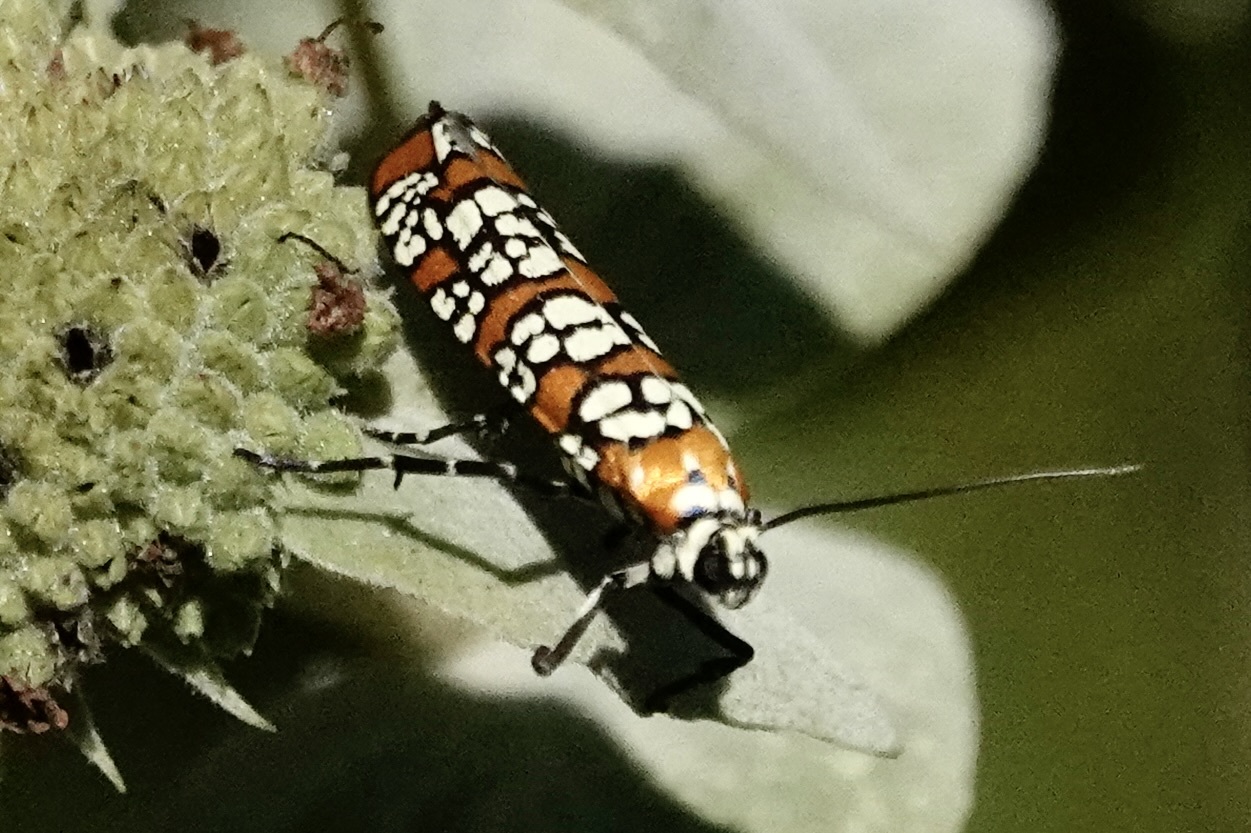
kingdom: Animalia
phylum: Arthropoda
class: Insecta
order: Lepidoptera
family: Attevidae
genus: Atteva
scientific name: Atteva punctella
